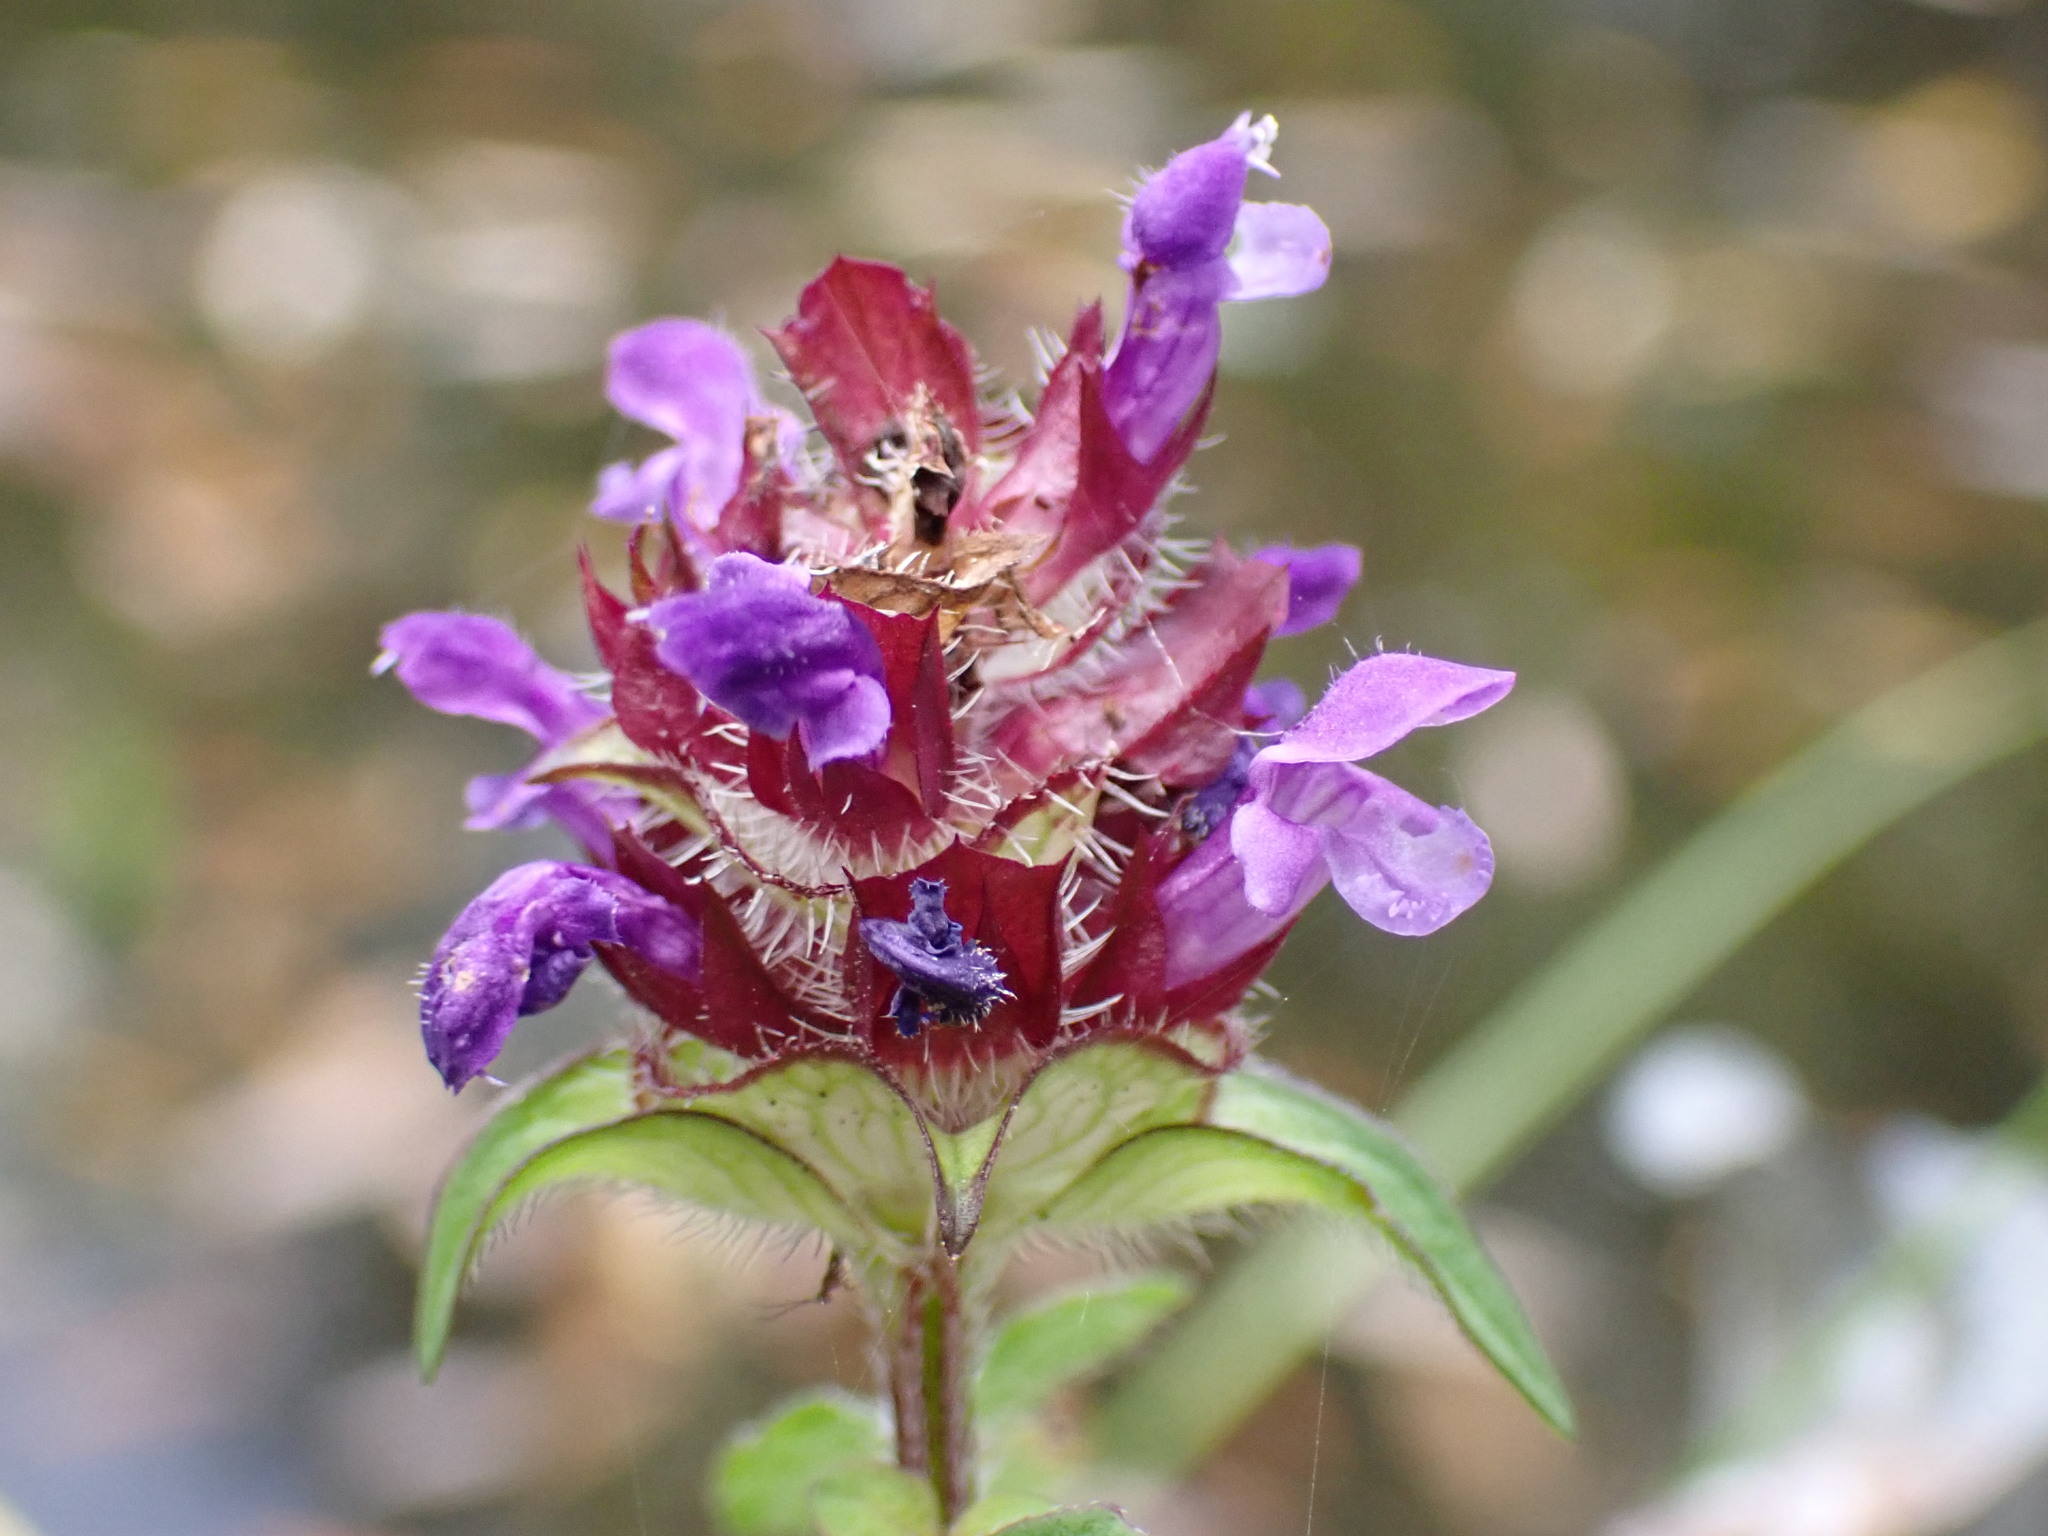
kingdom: Plantae
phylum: Tracheophyta
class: Magnoliopsida
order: Lamiales
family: Lamiaceae
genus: Prunella
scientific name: Prunella vulgaris
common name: Heal-all
